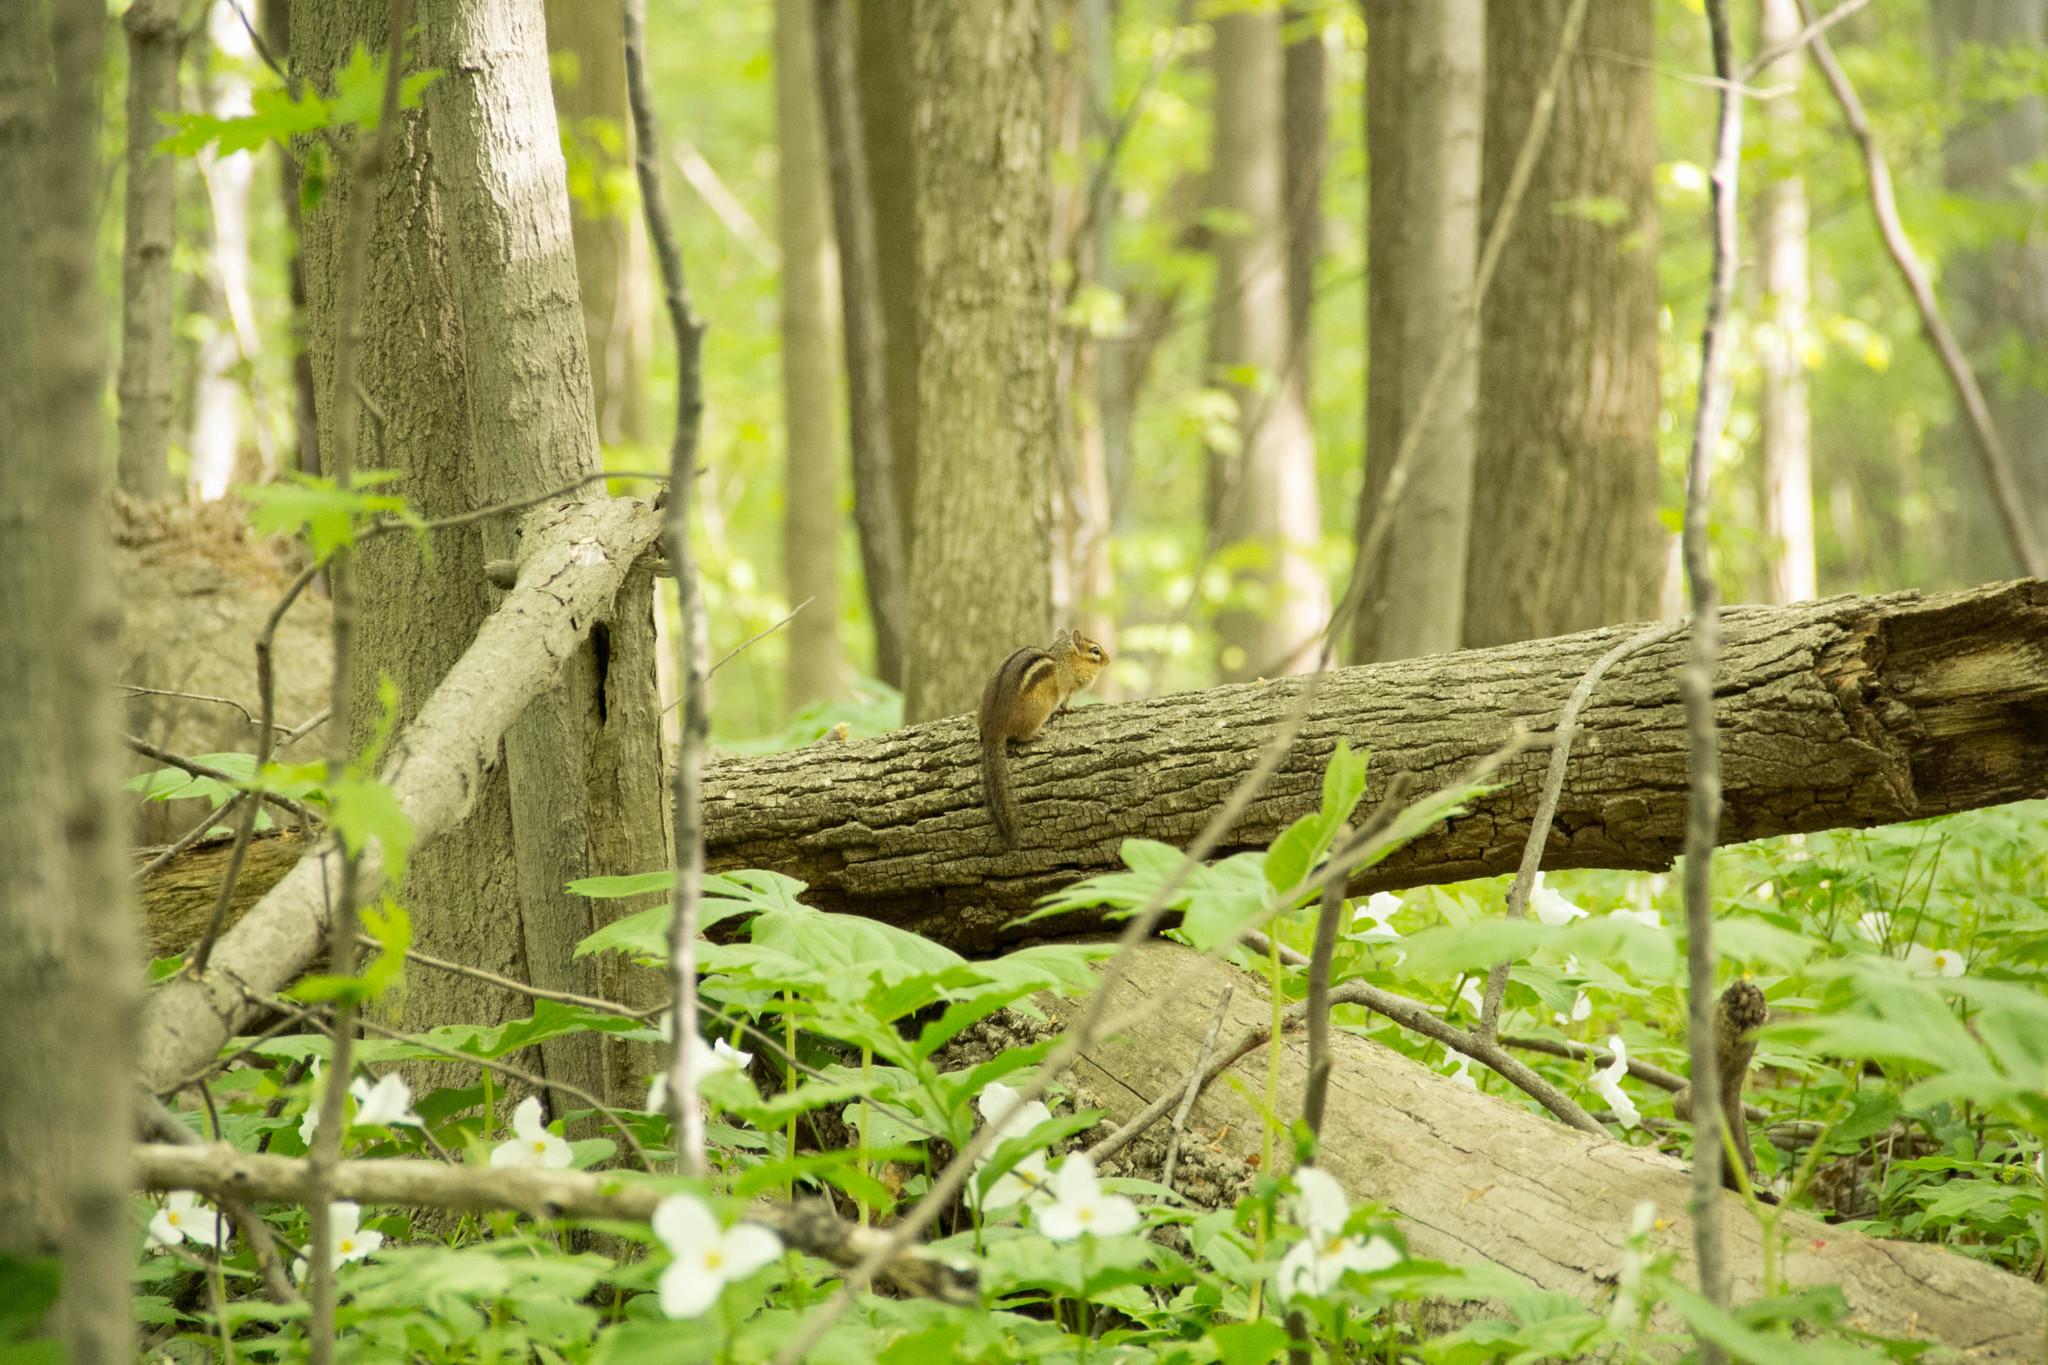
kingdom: Animalia
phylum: Chordata
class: Mammalia
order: Rodentia
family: Sciuridae
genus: Tamias
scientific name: Tamias striatus
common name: Eastern chipmunk
